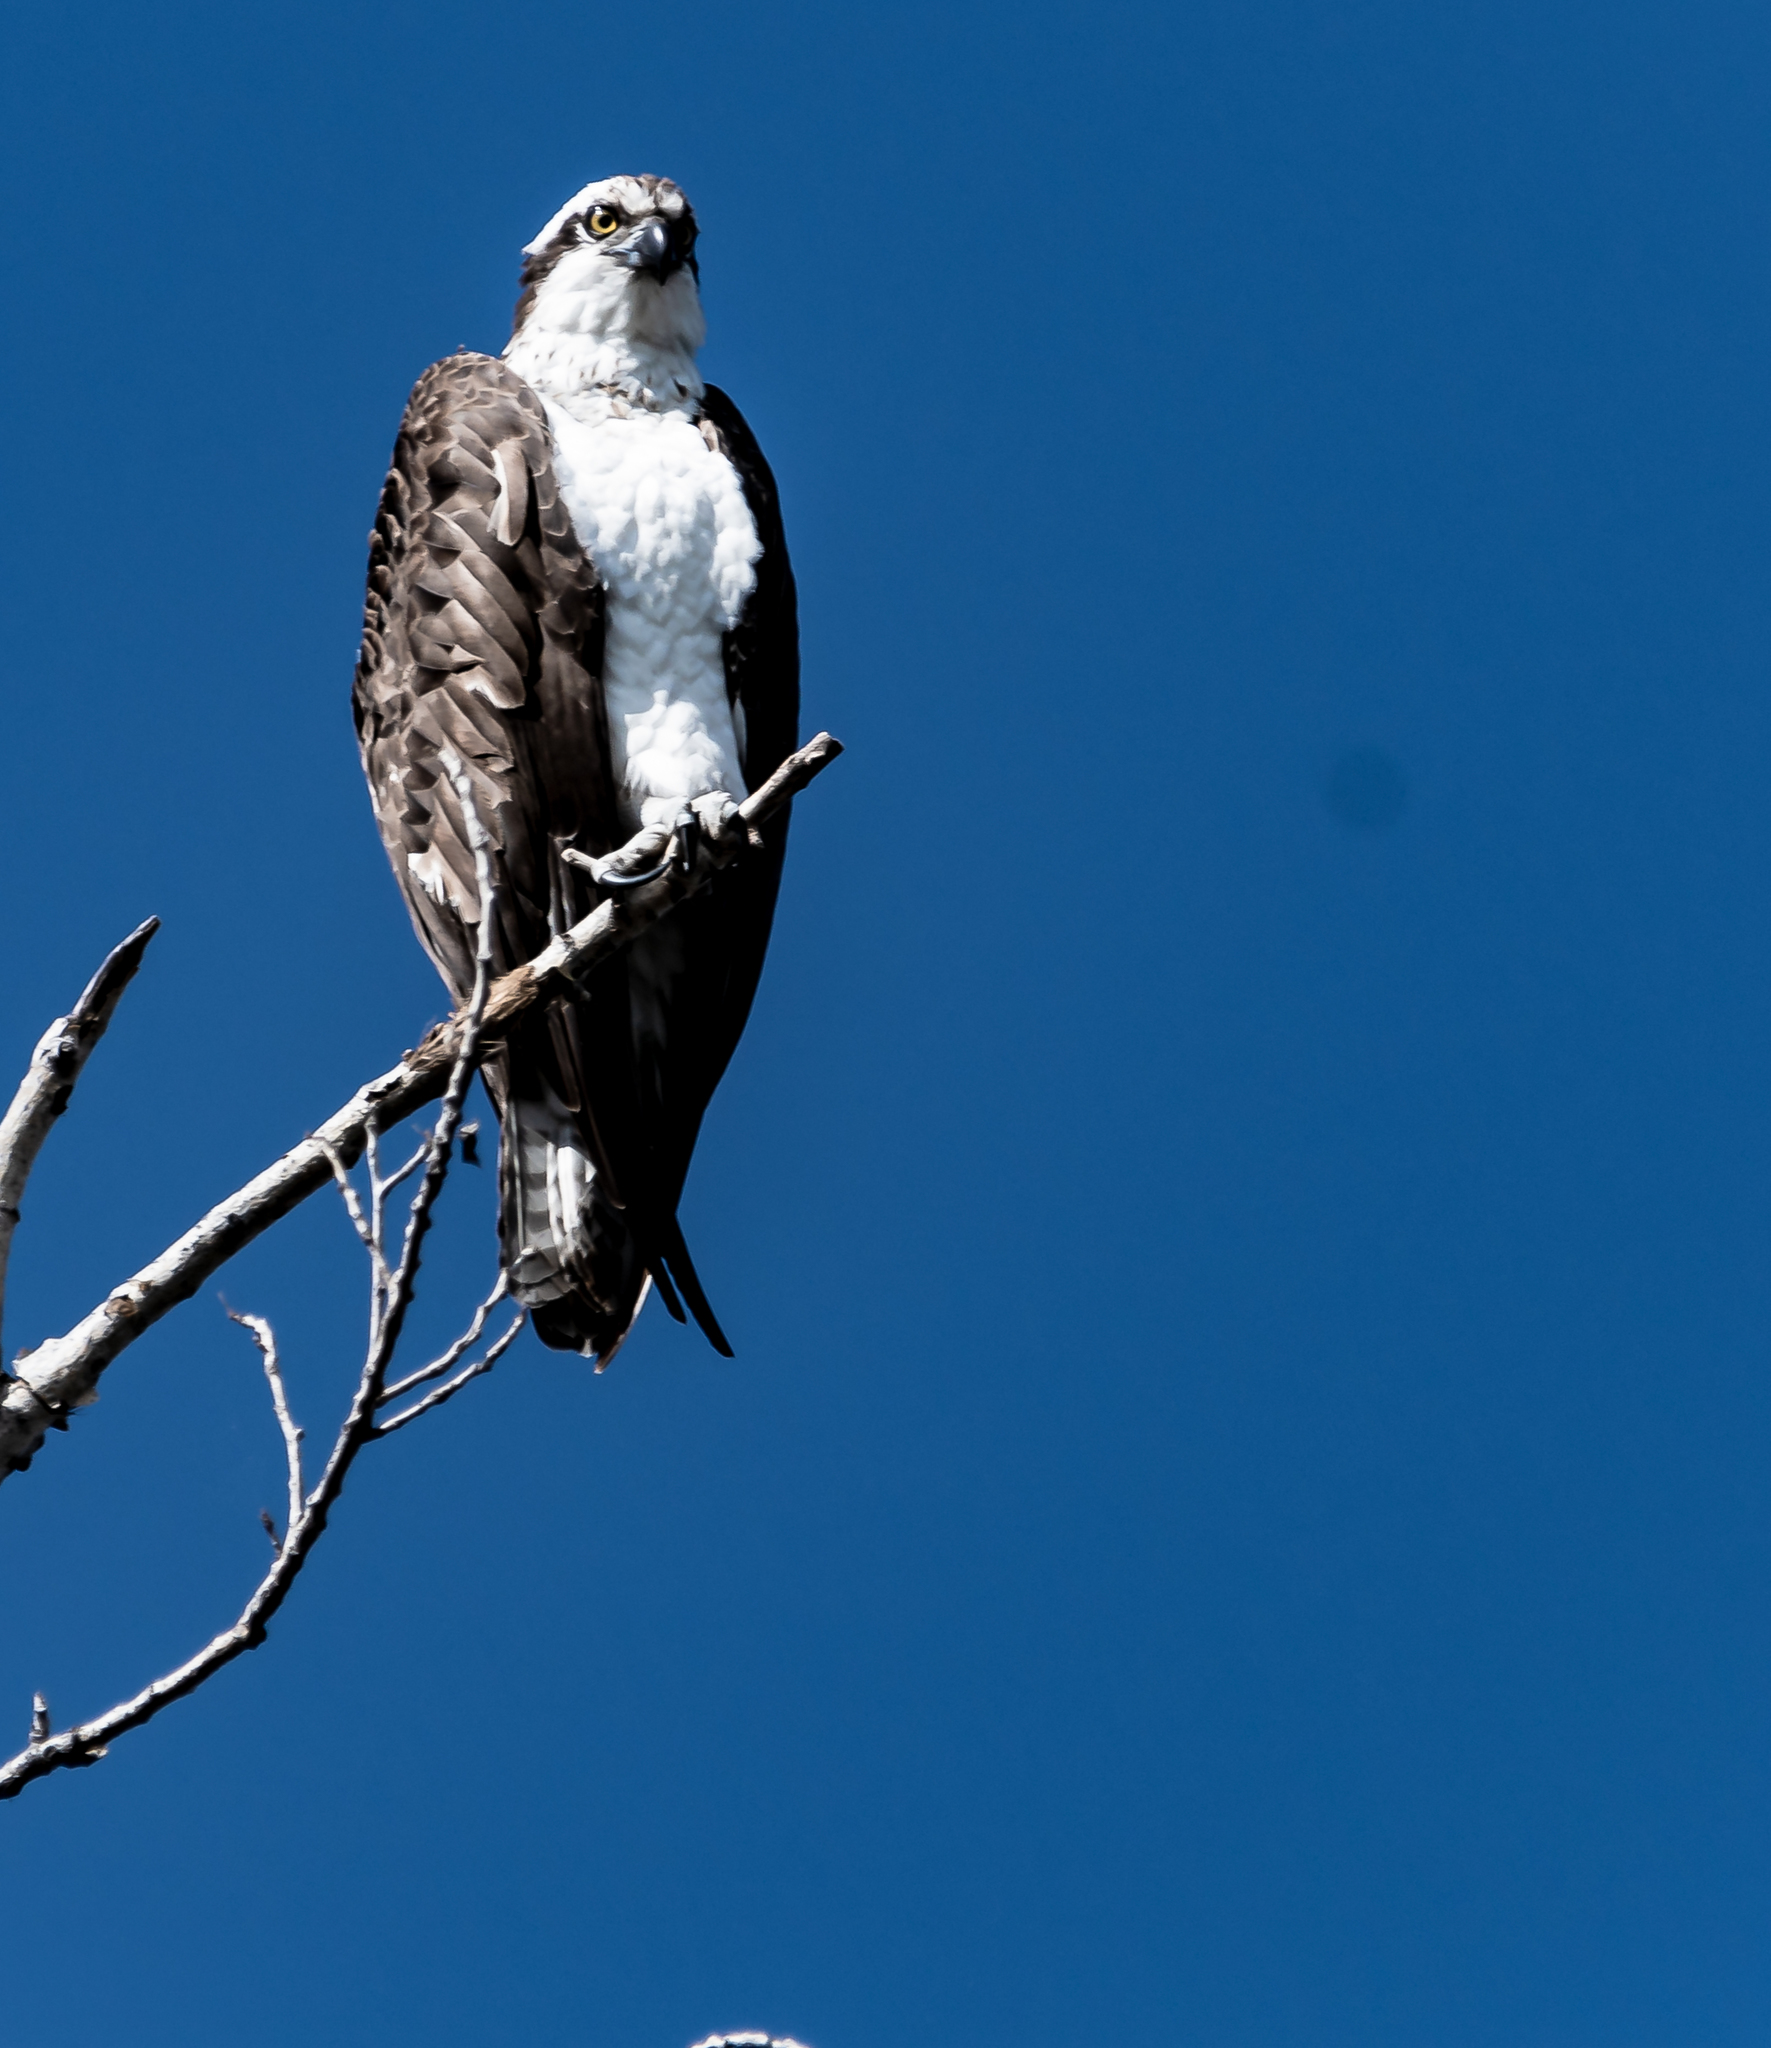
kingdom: Animalia
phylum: Chordata
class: Aves
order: Accipitriformes
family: Pandionidae
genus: Pandion
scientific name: Pandion haliaetus
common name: Osprey
